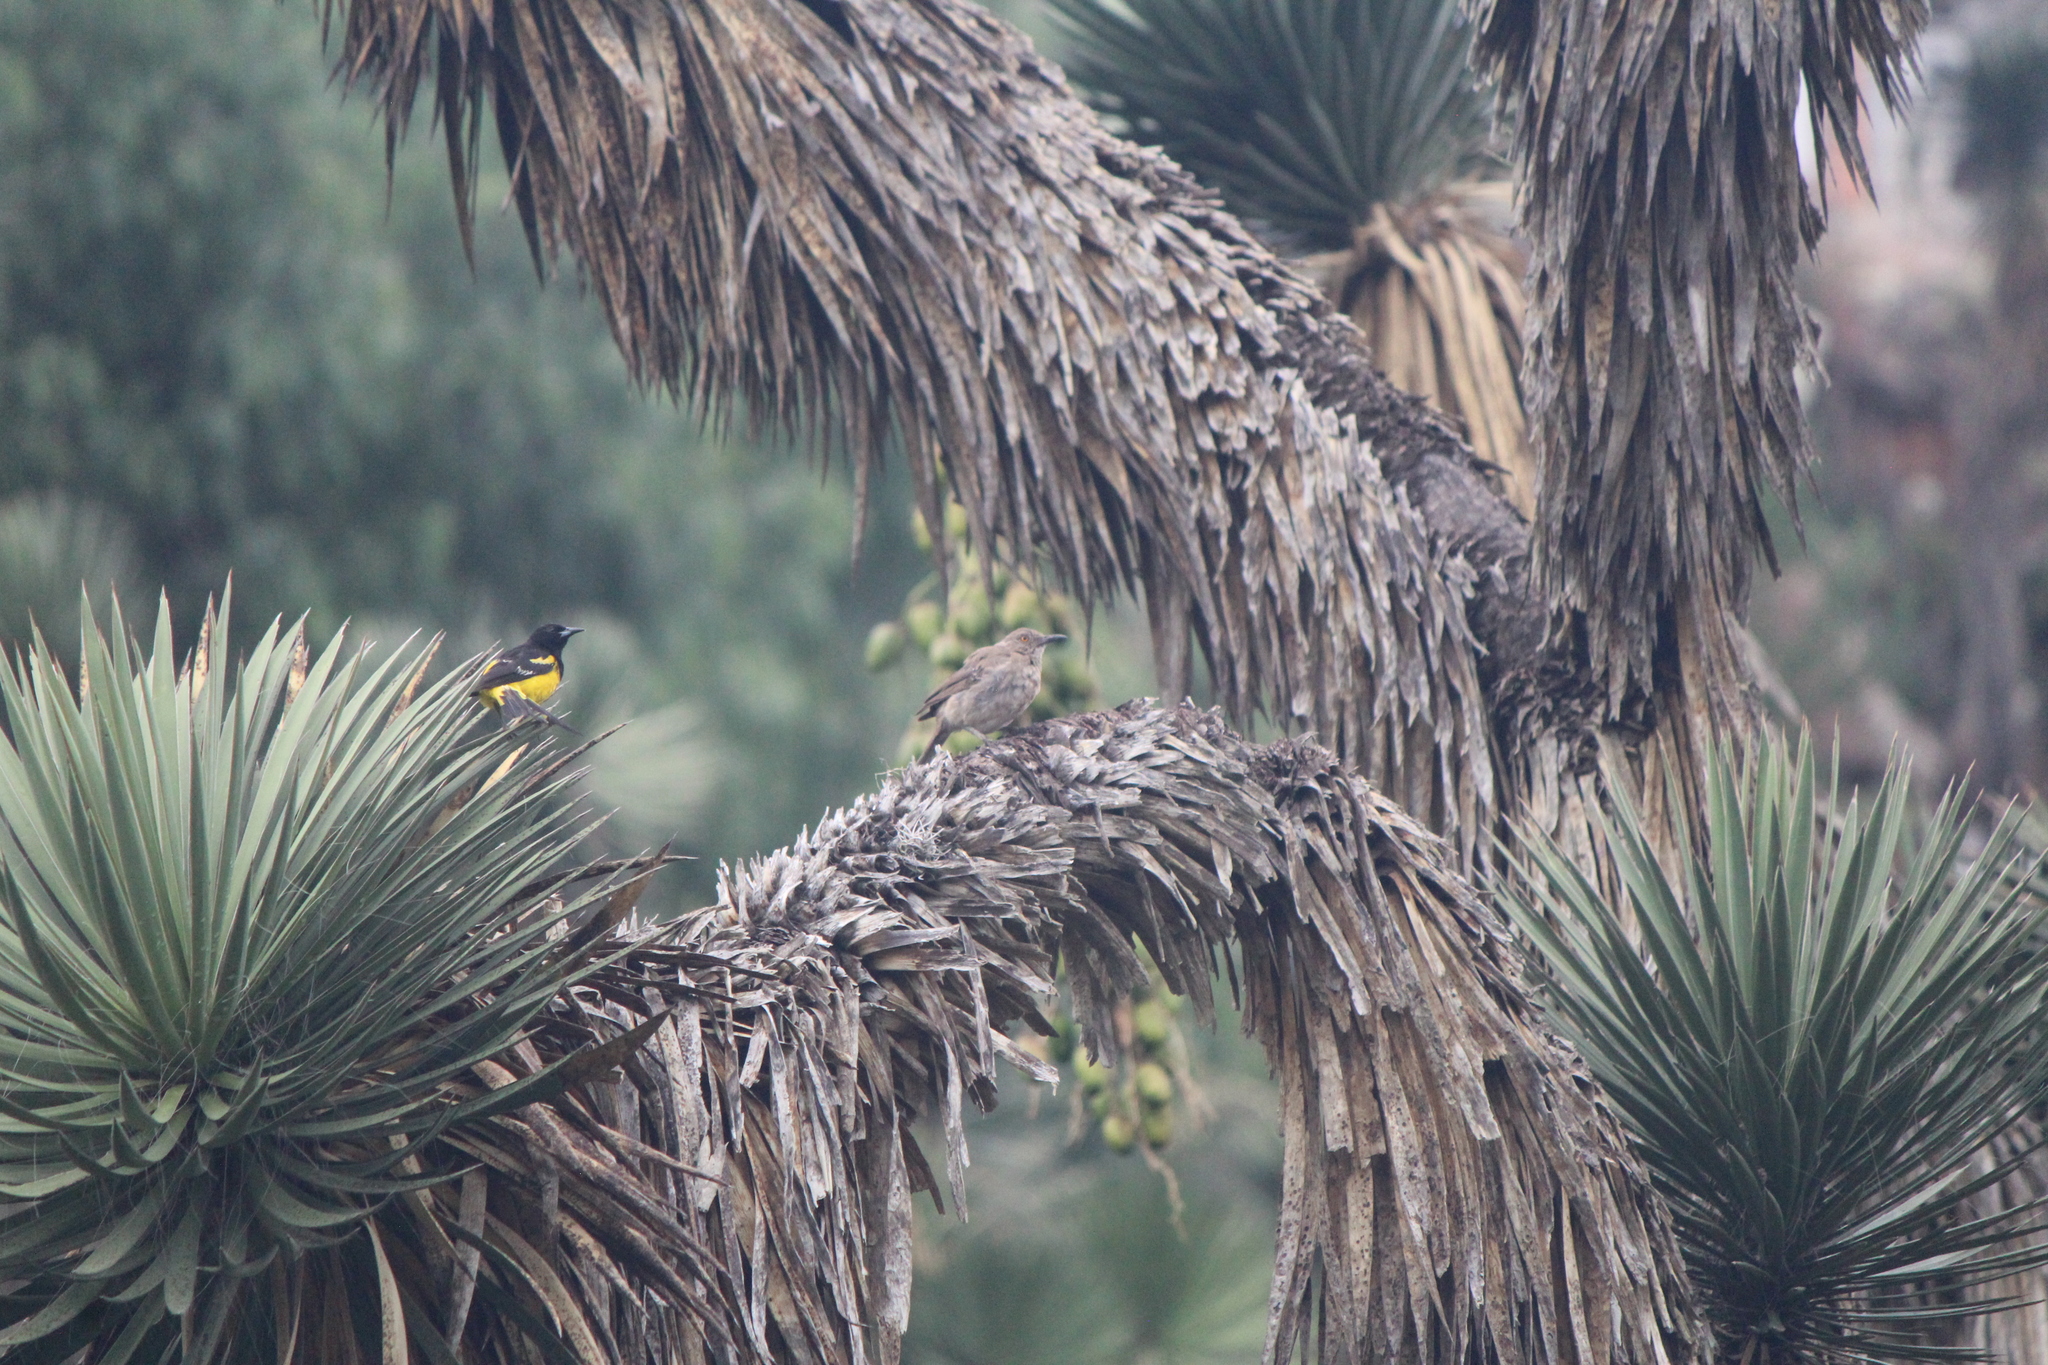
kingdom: Animalia
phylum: Chordata
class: Aves
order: Passeriformes
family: Icteridae
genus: Icterus
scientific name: Icterus parisorum
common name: Scott's oriole
